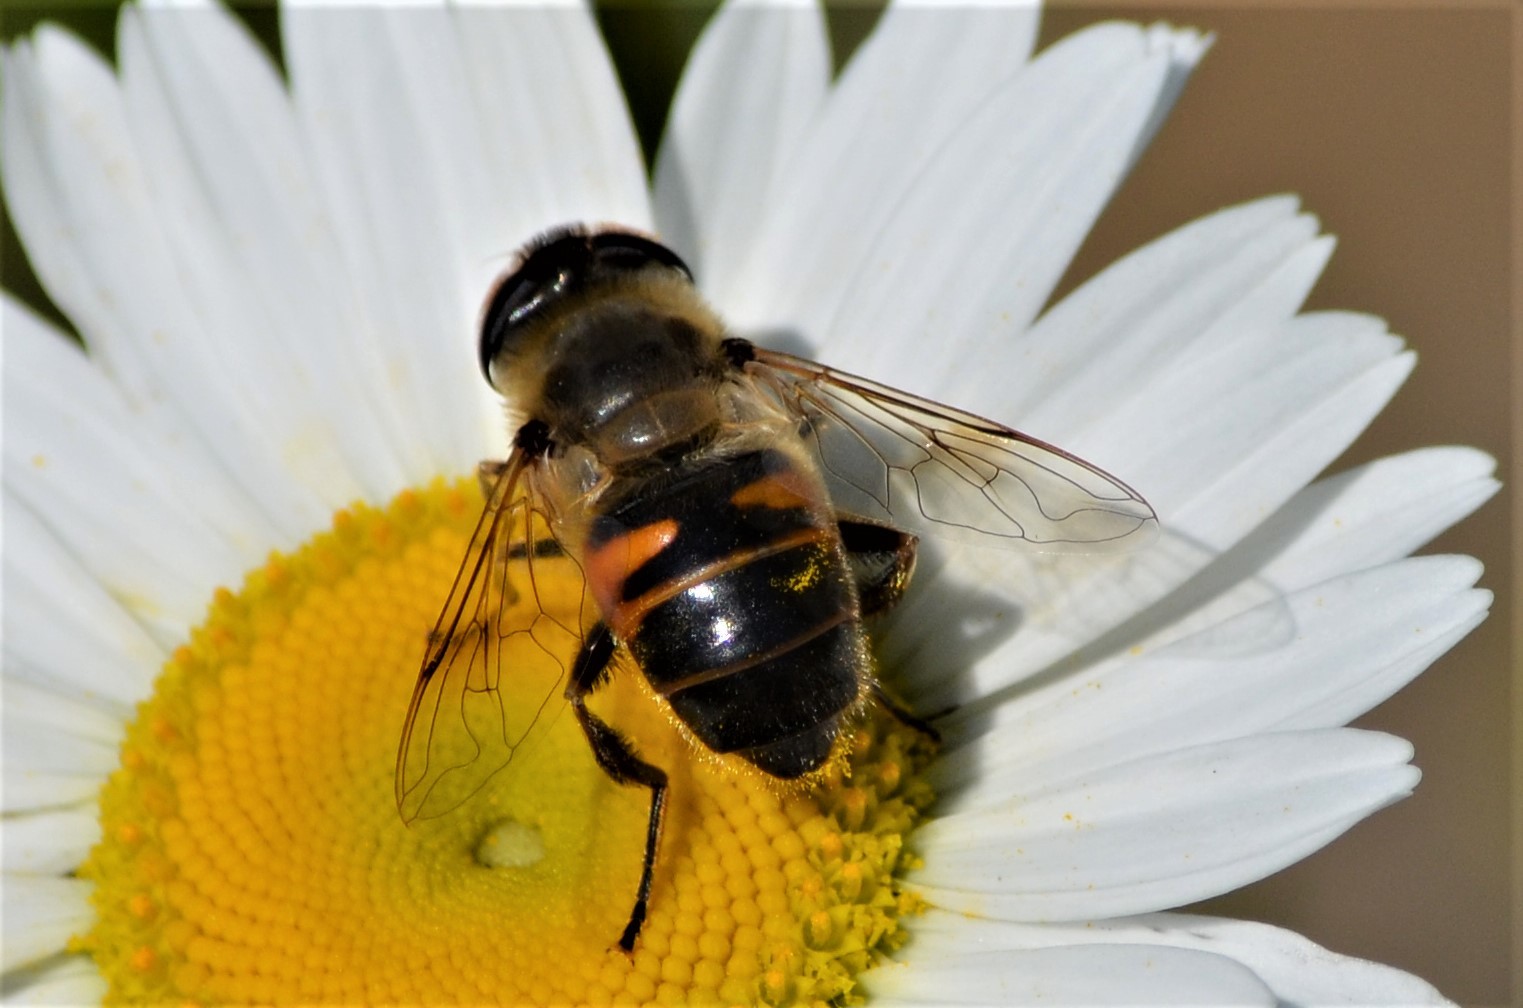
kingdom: Animalia
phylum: Arthropoda
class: Insecta
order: Diptera
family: Syrphidae
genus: Eristalis
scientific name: Eristalis tenax
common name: Drone fly
